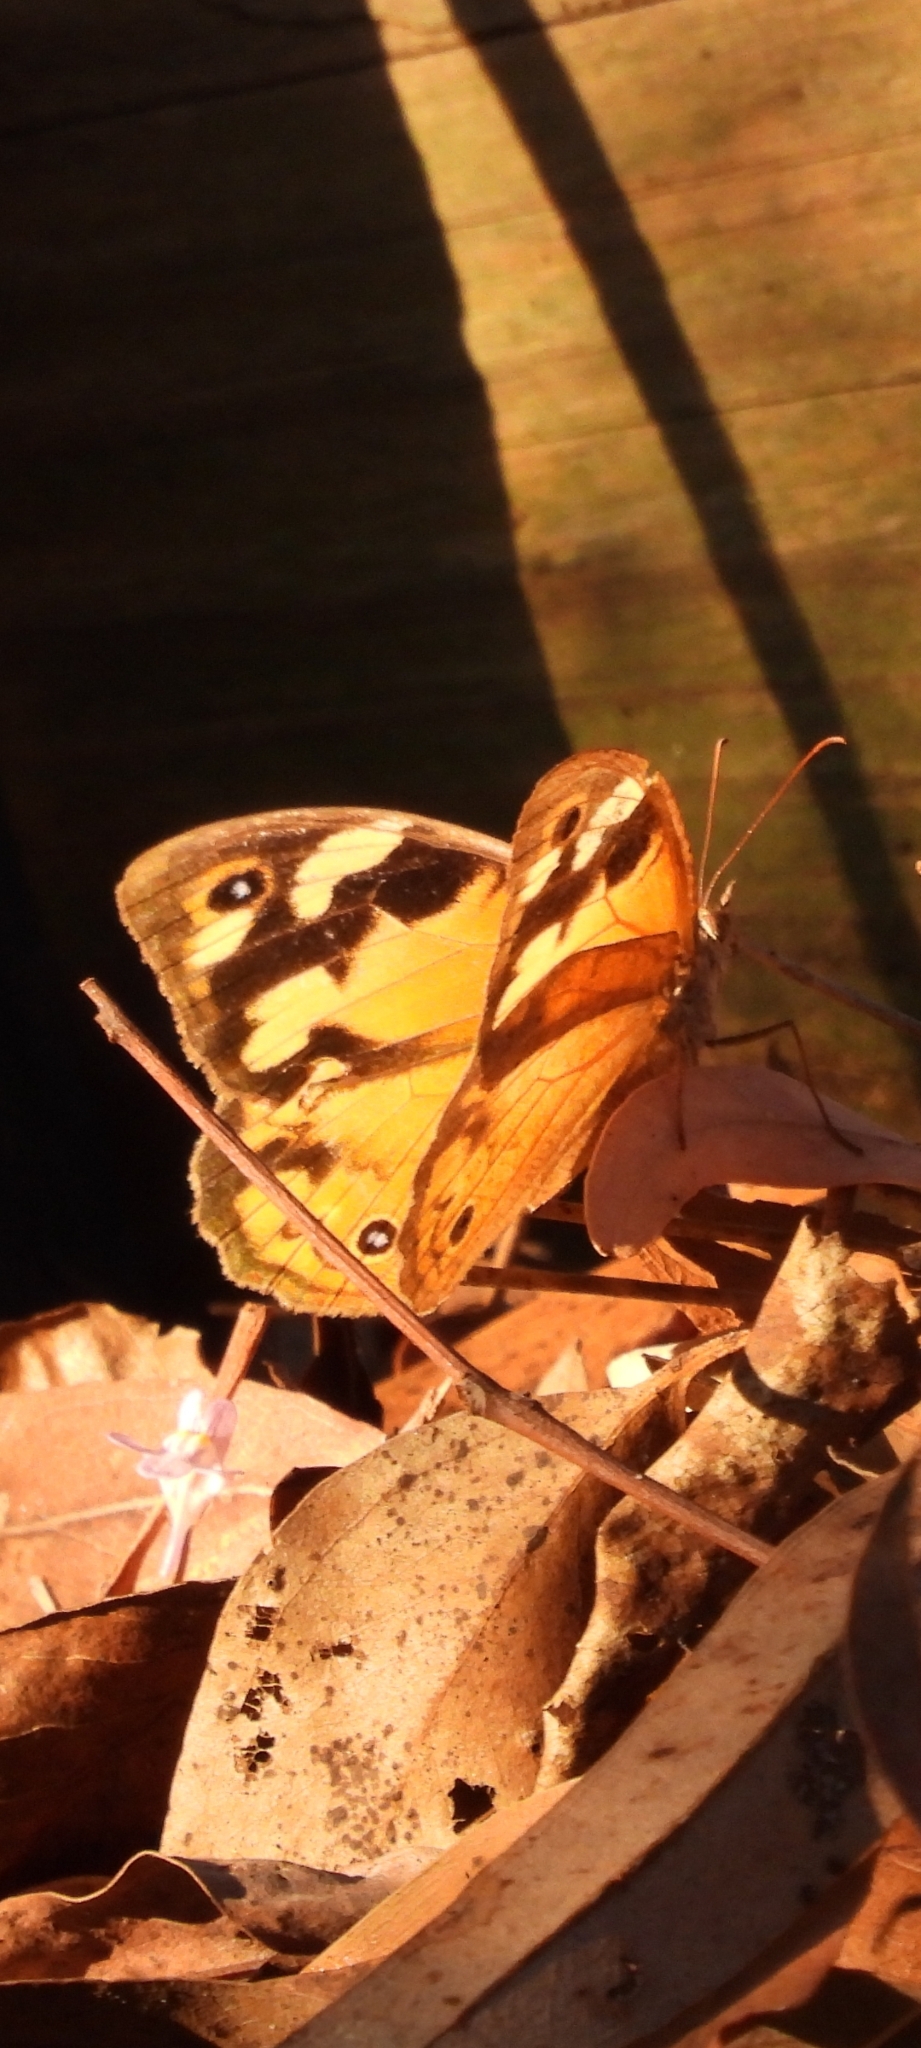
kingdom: Animalia
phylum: Arthropoda
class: Insecta
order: Lepidoptera
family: Nymphalidae
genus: Heteronympha
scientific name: Heteronympha merope
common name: Common brown
